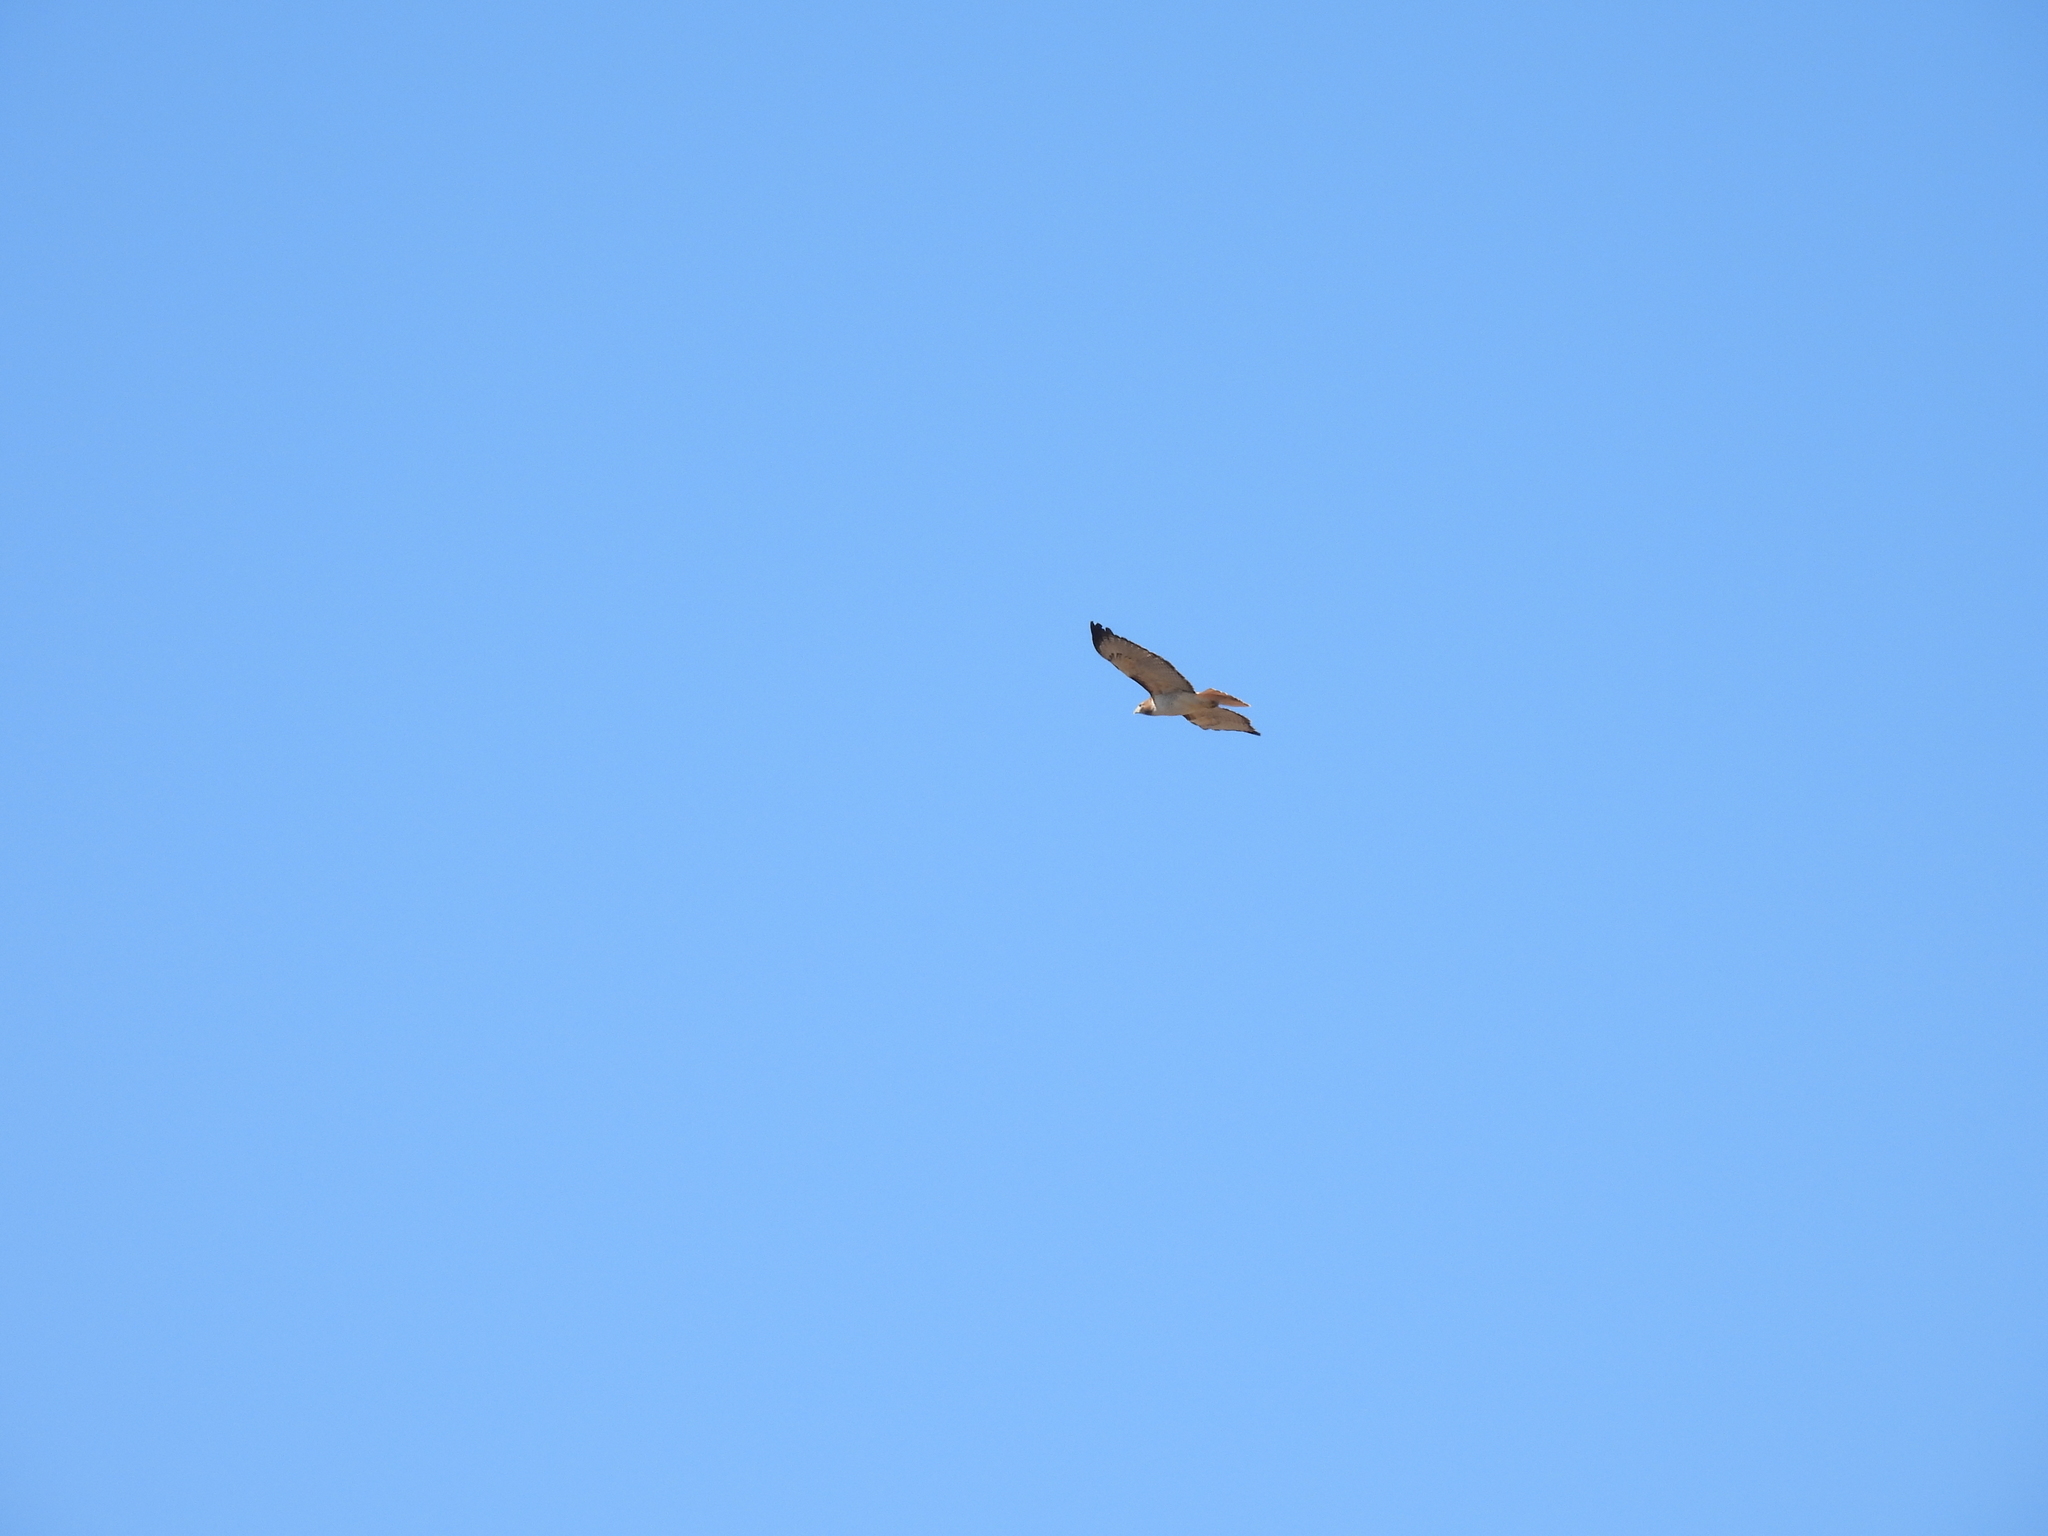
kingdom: Animalia
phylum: Chordata
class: Aves
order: Accipitriformes
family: Accipitridae
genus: Buteo
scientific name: Buteo jamaicensis
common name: Red-tailed hawk
